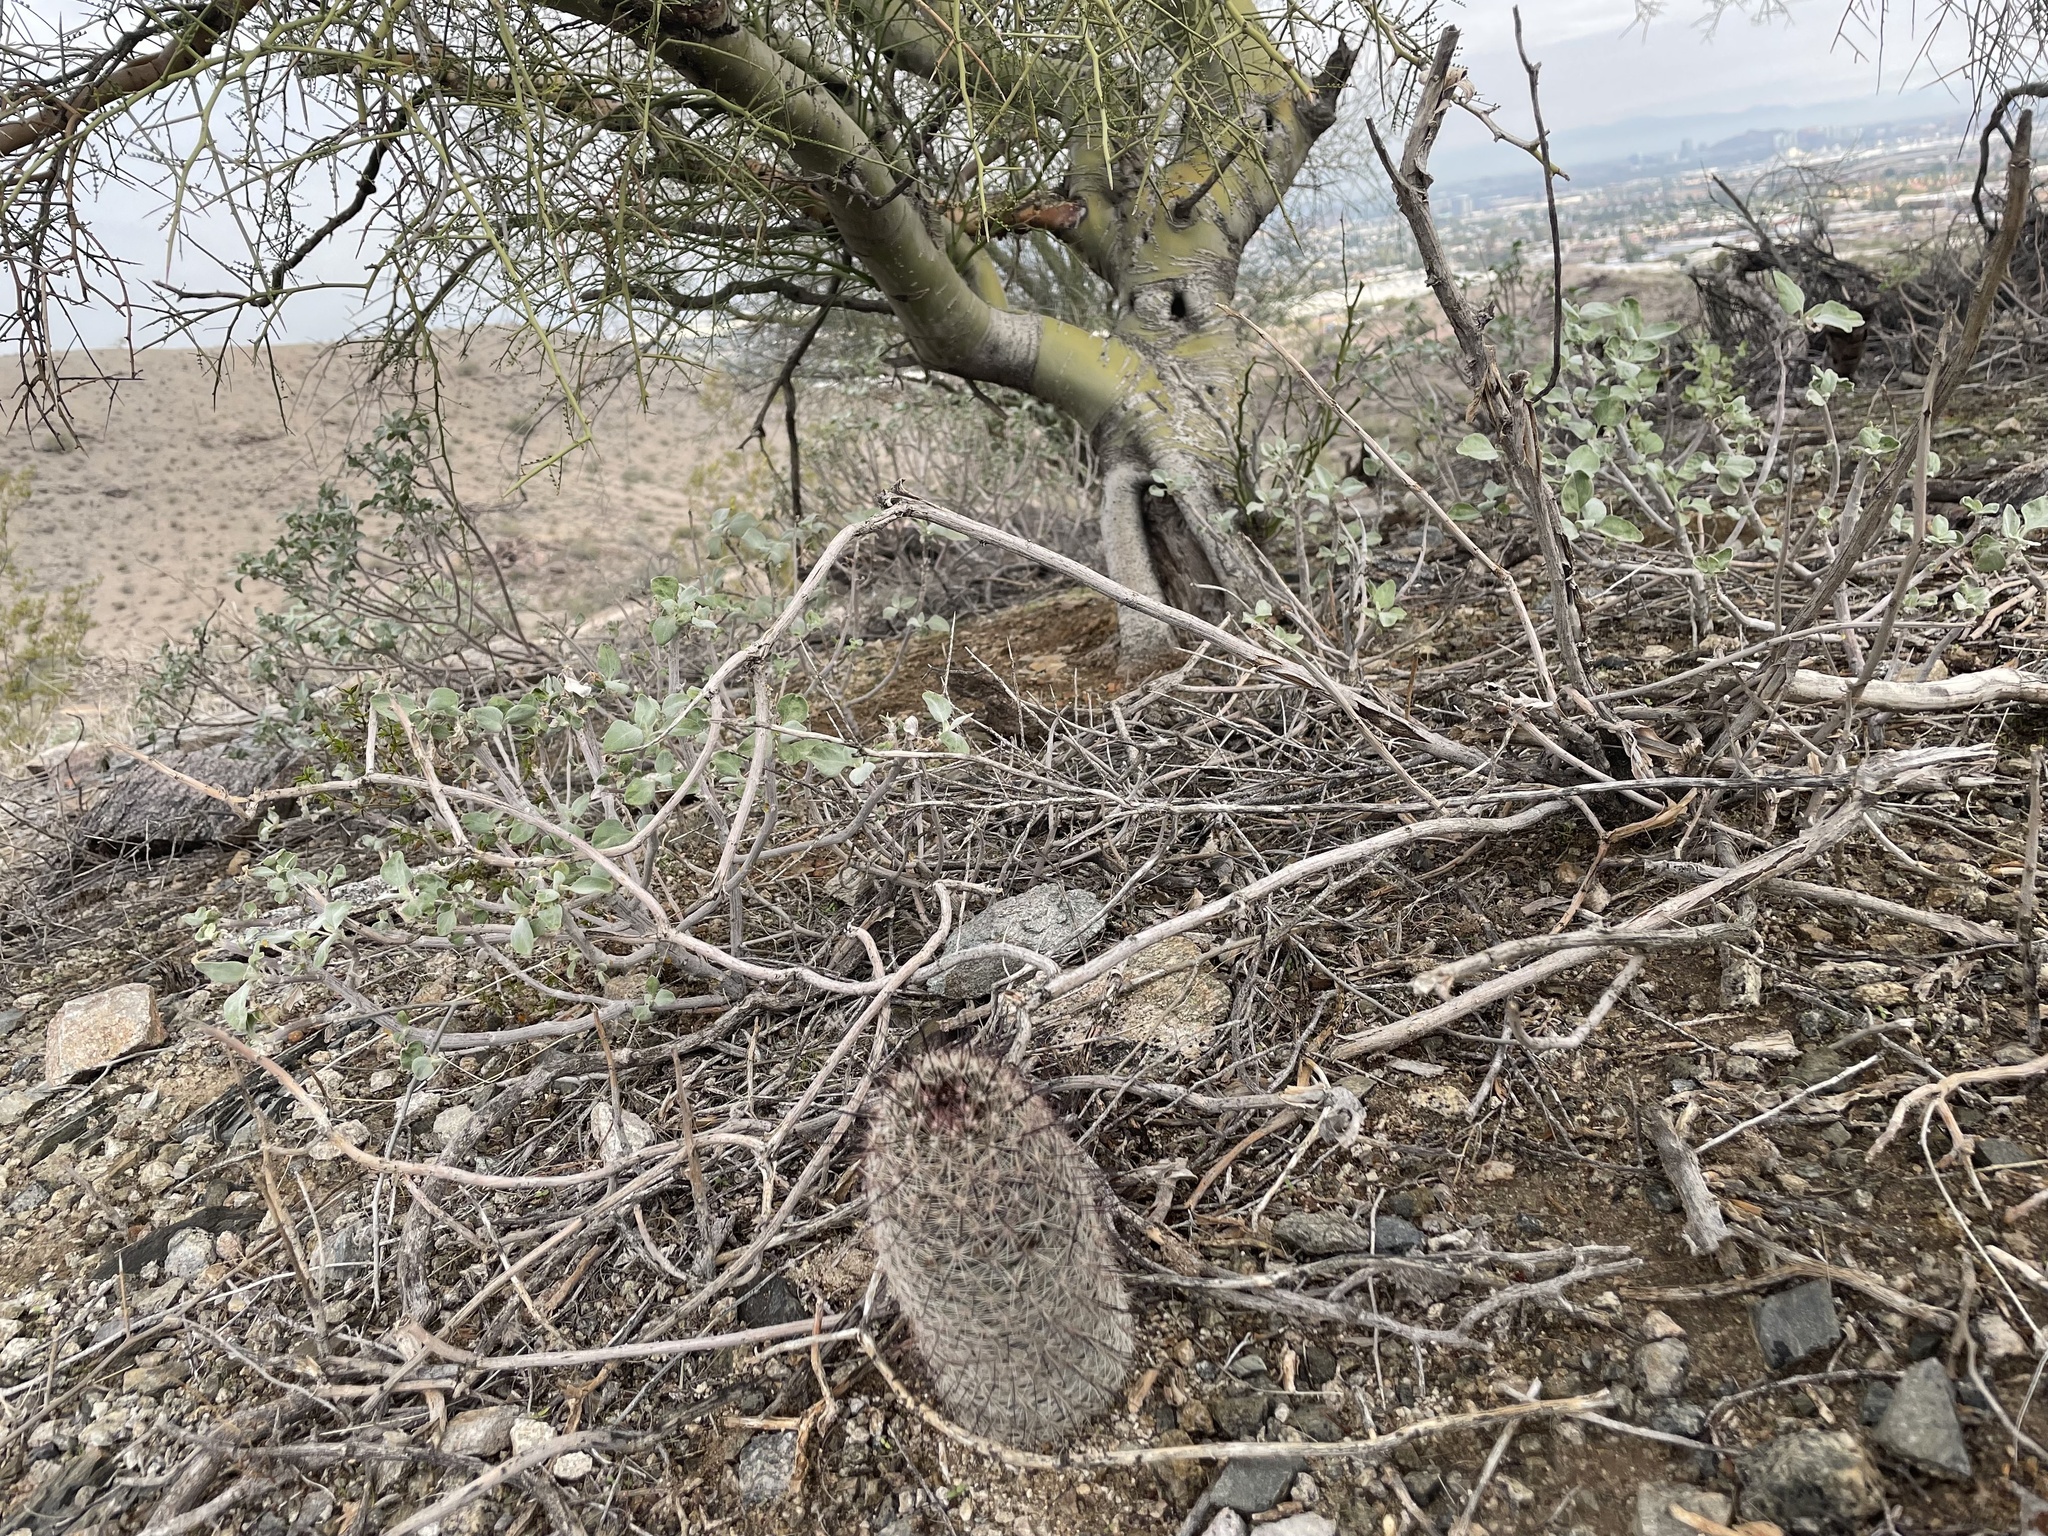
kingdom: Plantae
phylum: Tracheophyta
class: Magnoliopsida
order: Caryophyllales
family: Cactaceae
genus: Cochemiea
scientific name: Cochemiea grahamii
